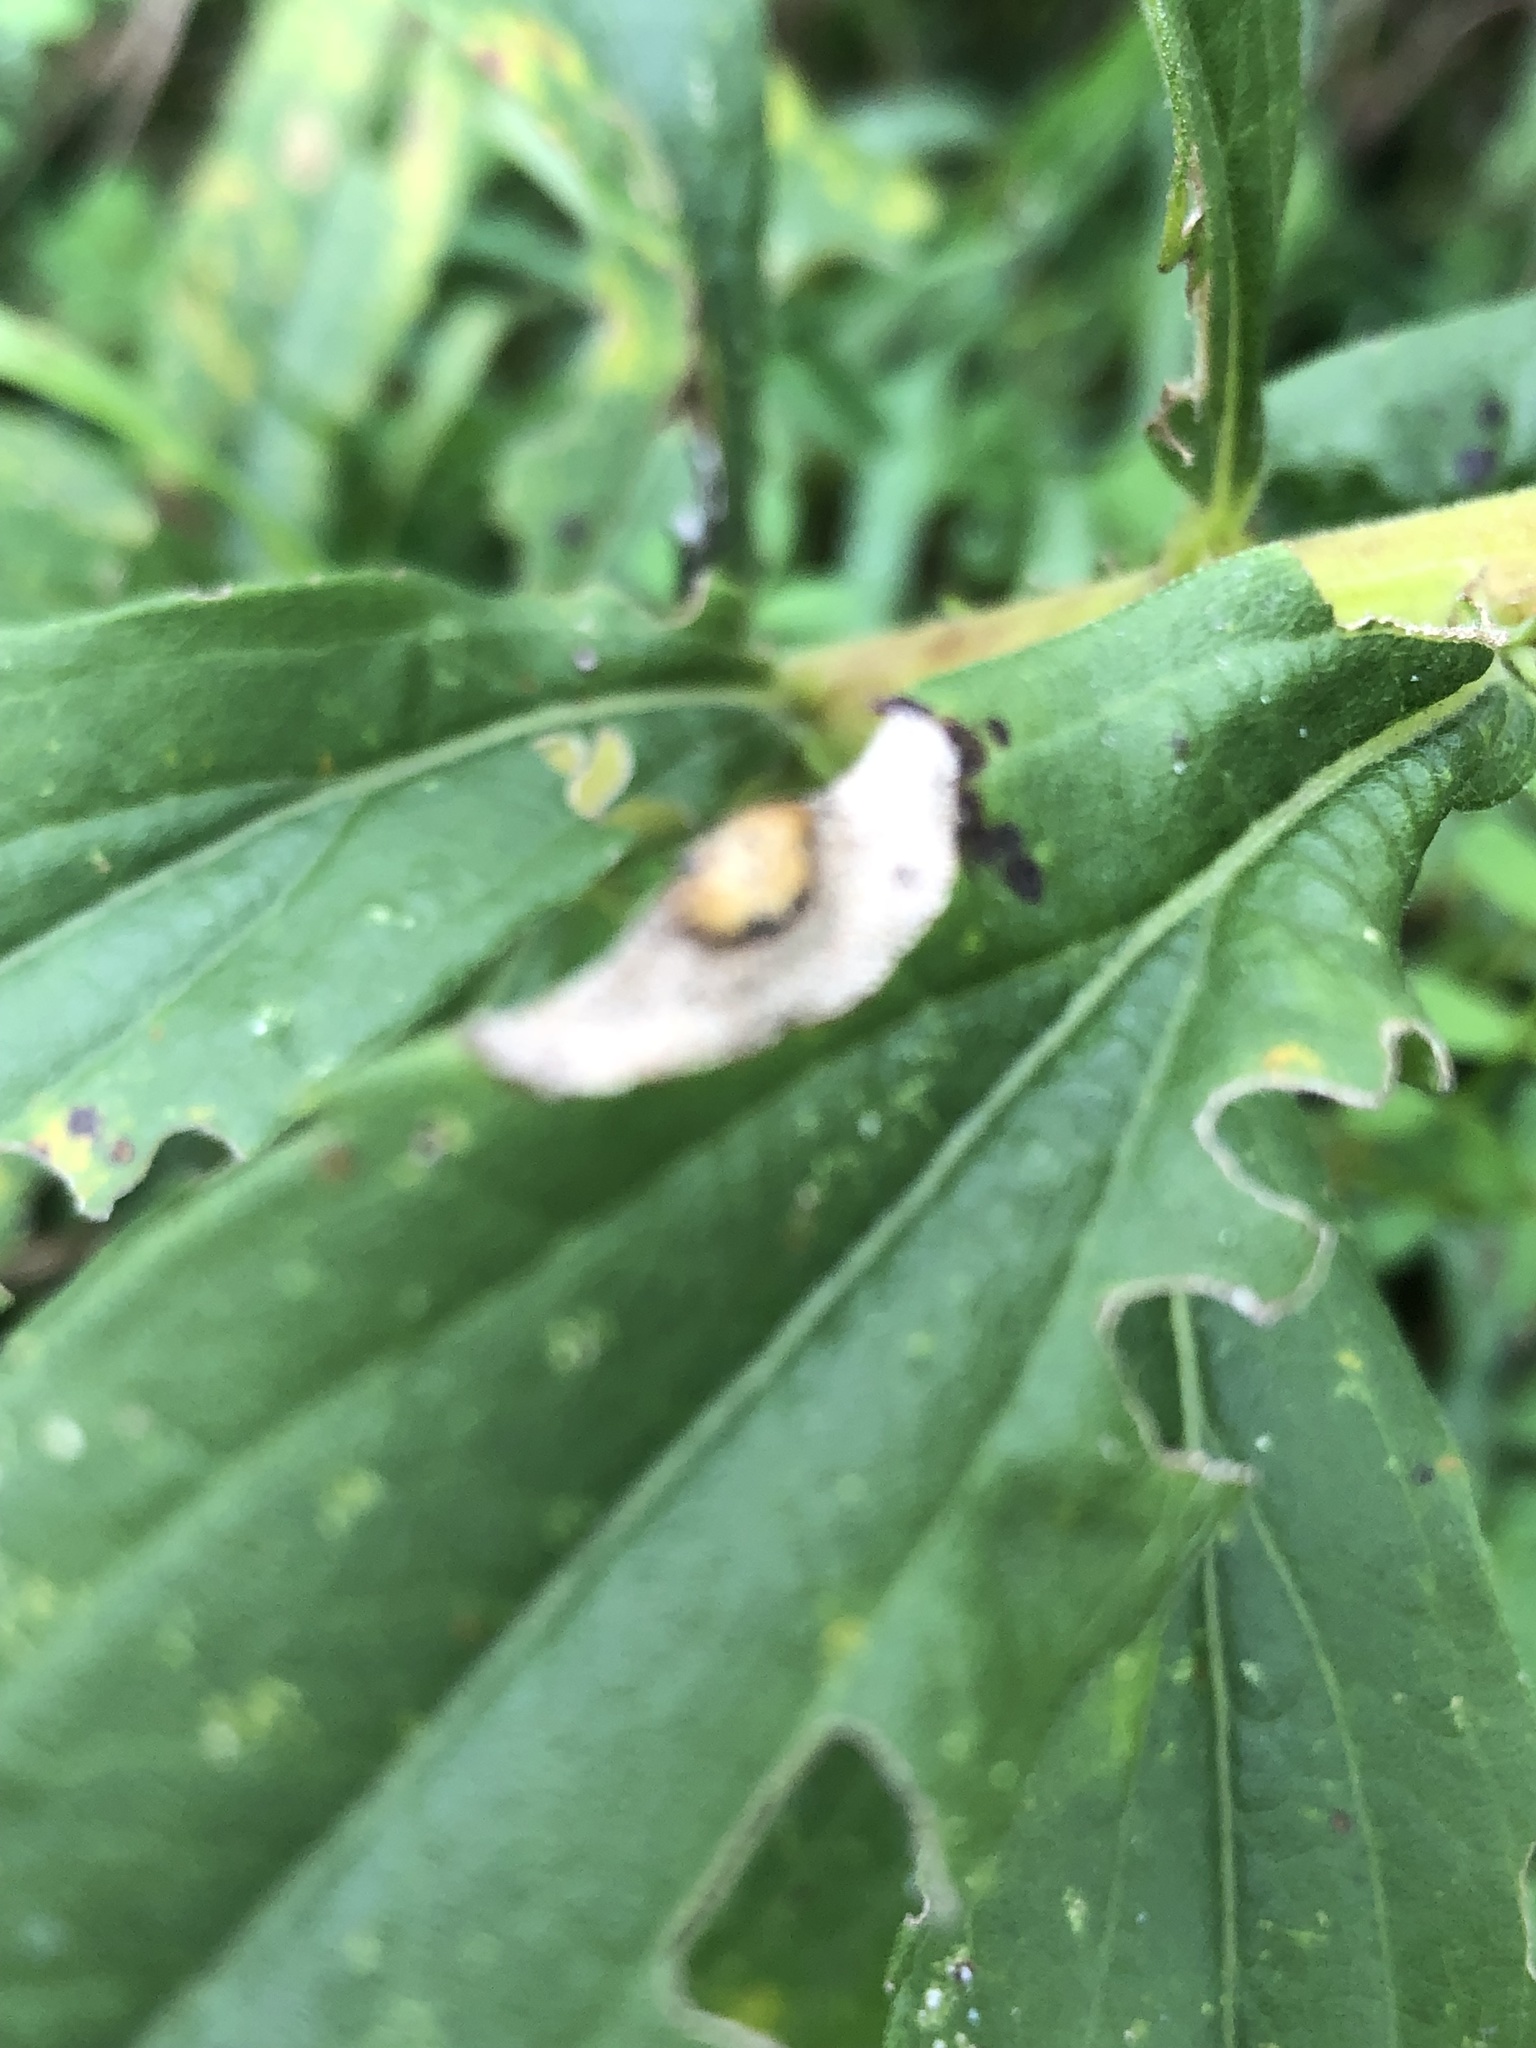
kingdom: Animalia
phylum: Arthropoda
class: Insecta
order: Diptera
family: Cecidomyiidae
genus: Asteromyia
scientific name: Asteromyia carbonifera
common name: Carbonifera goldenrod gall midge
